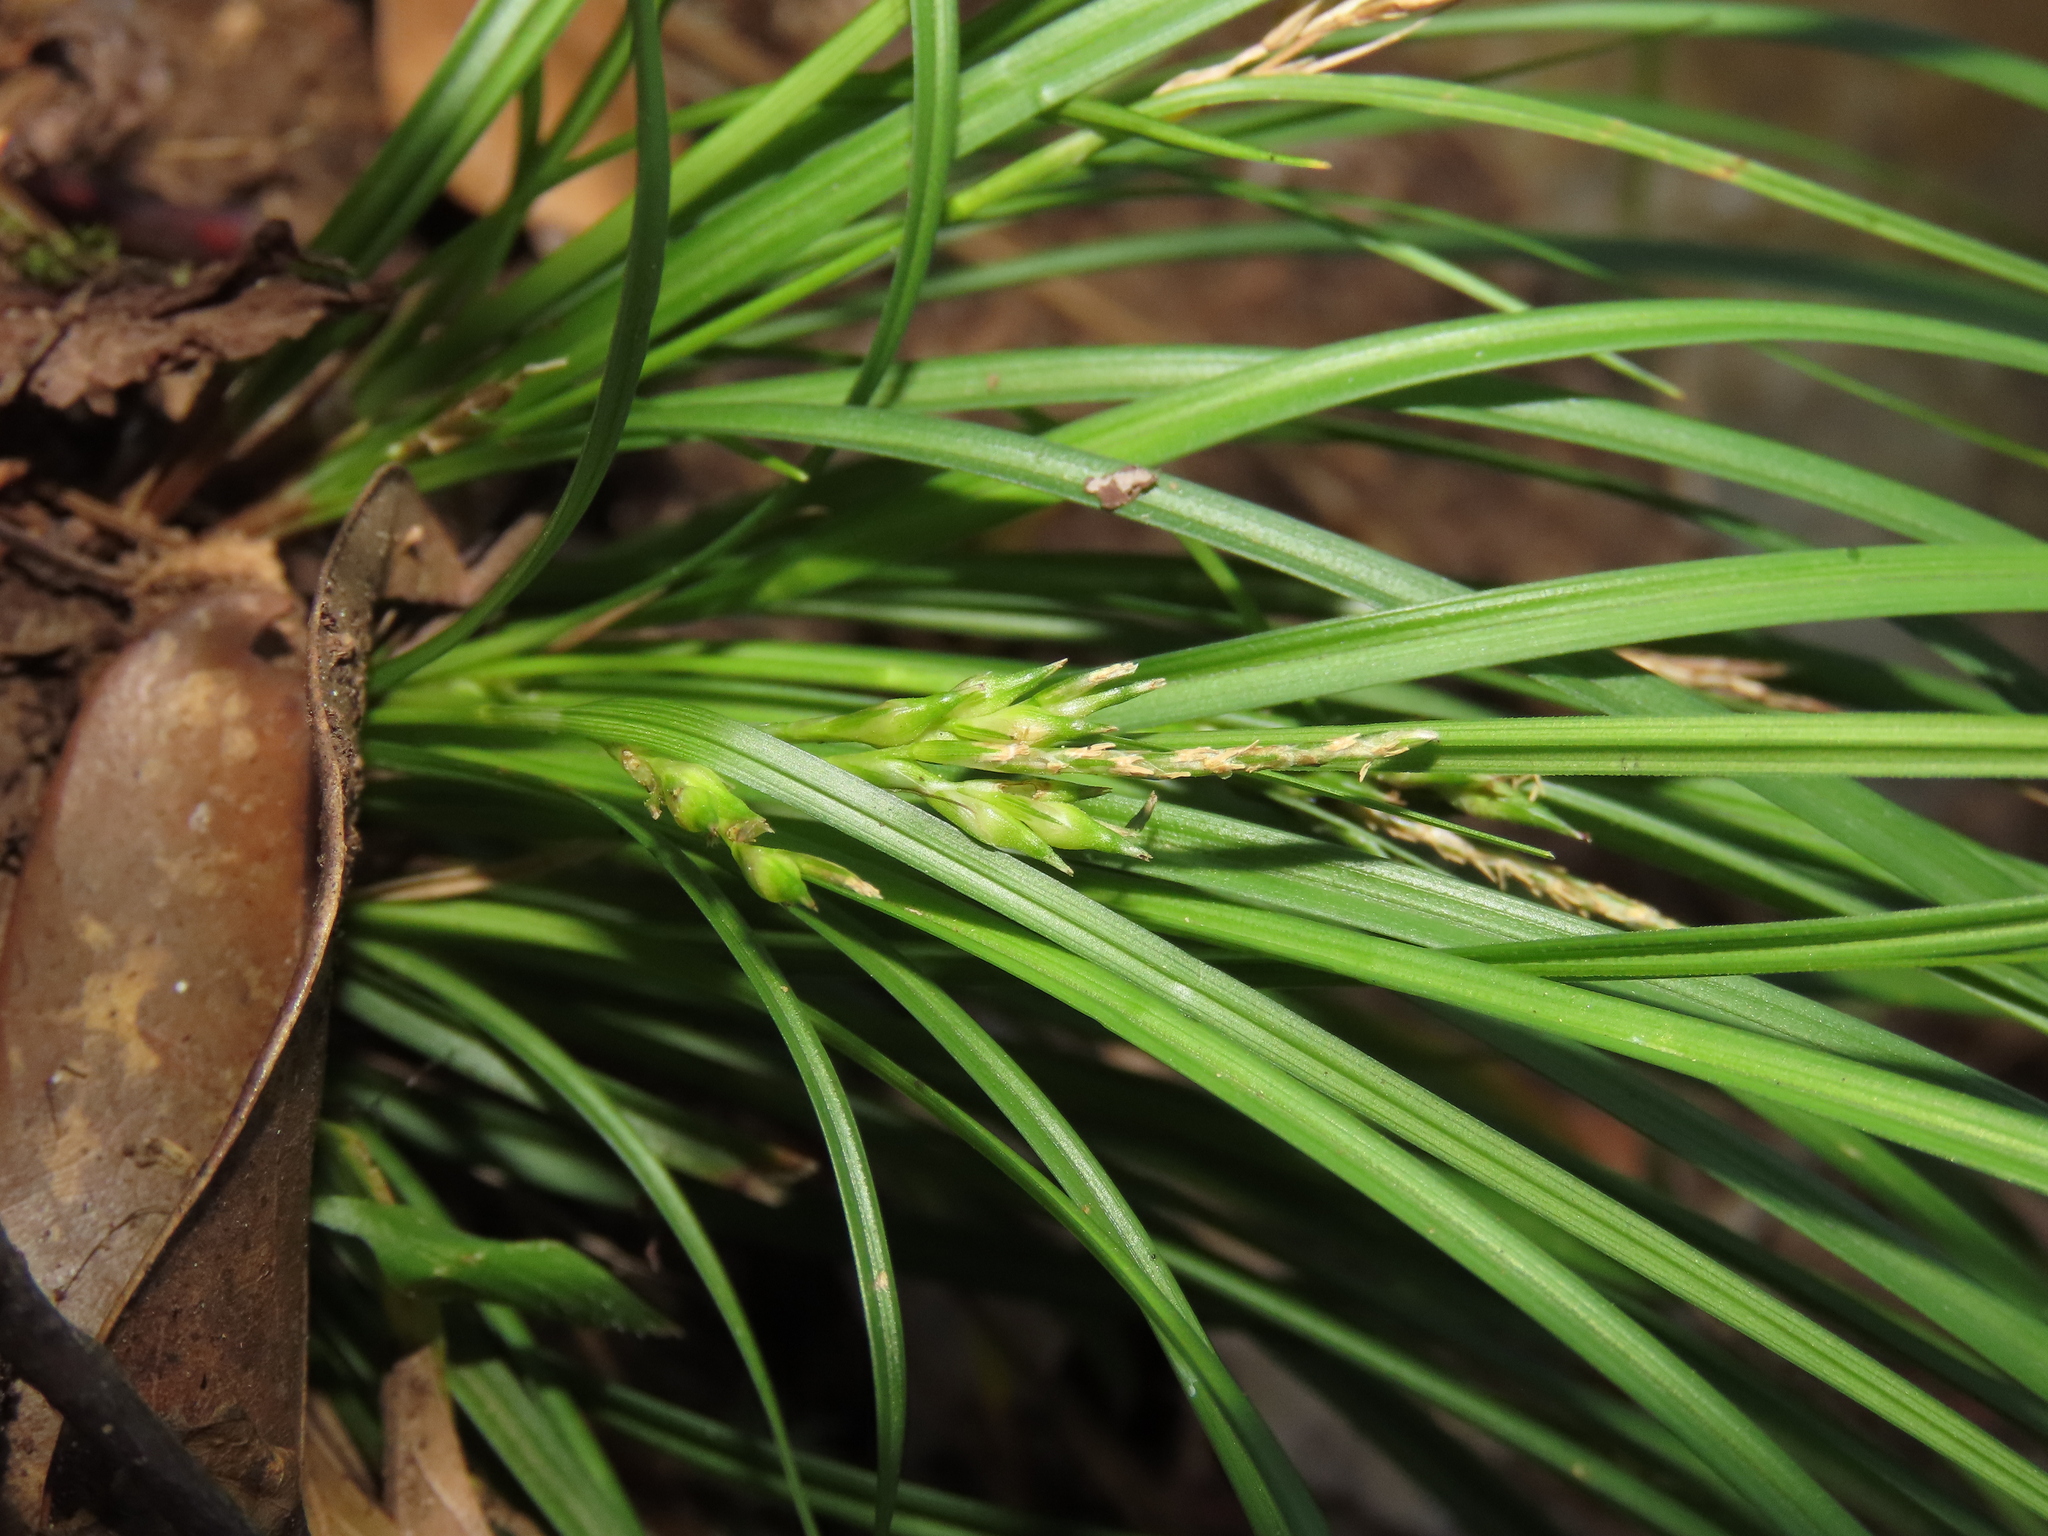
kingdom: Plantae
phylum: Tracheophyta
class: Liliopsida
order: Poales
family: Cyperaceae
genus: Carex
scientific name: Carex rhynchachaenium
